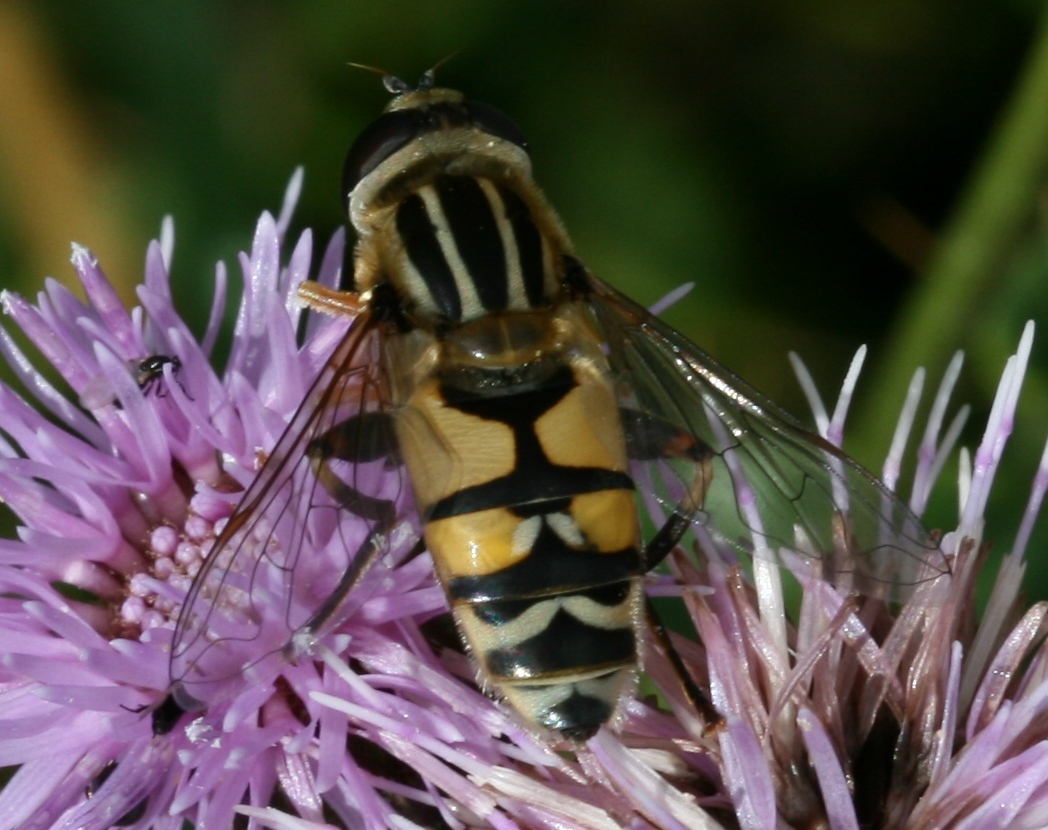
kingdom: Animalia
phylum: Arthropoda
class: Insecta
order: Diptera
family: Syrphidae
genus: Helophilus
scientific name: Helophilus trivittatus
